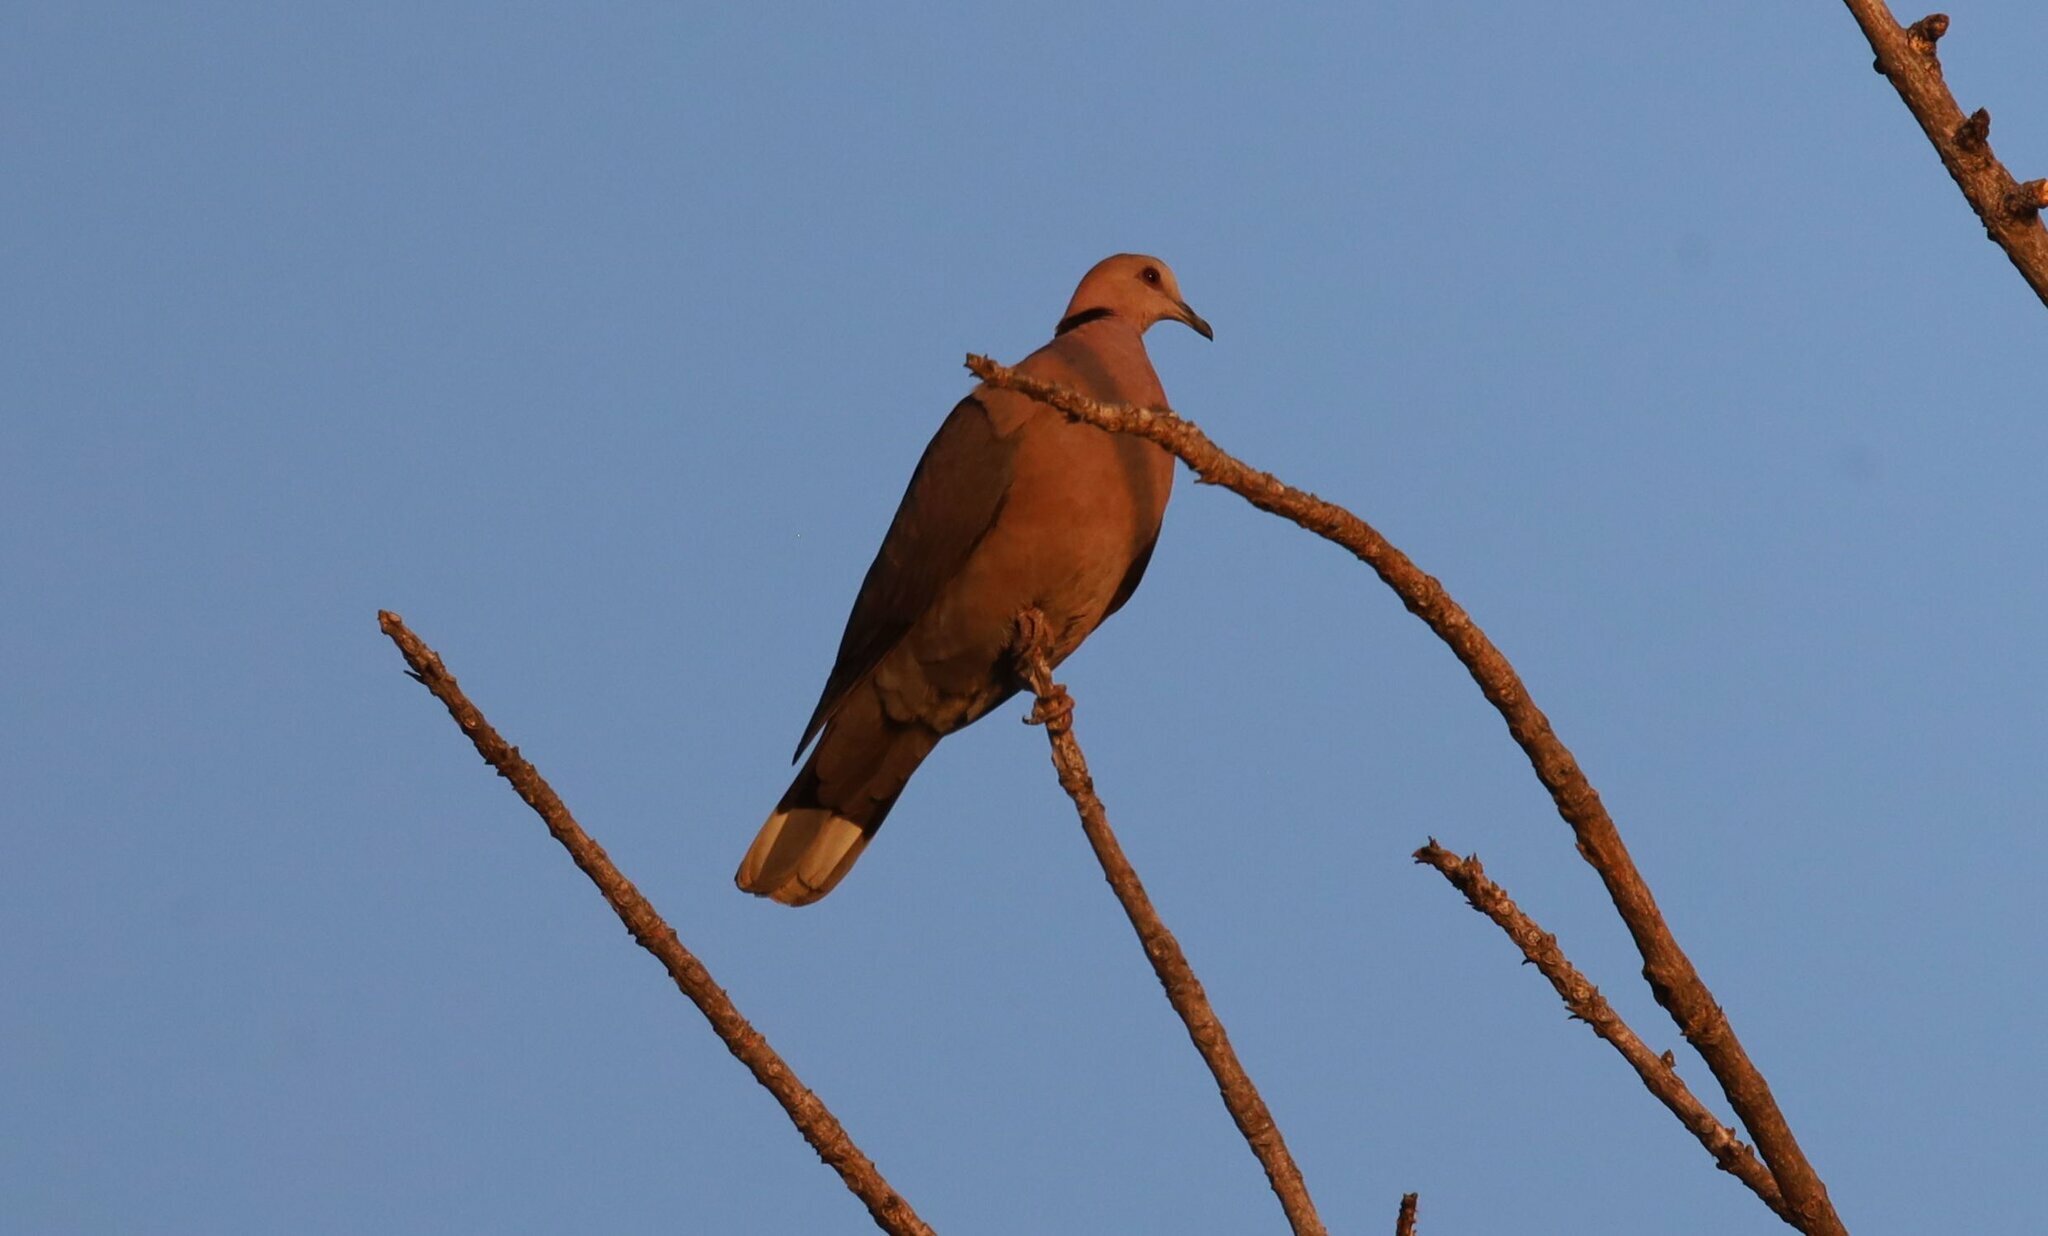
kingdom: Animalia
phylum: Chordata
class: Aves
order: Columbiformes
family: Columbidae
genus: Streptopelia
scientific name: Streptopelia semitorquata
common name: Red-eyed dove
